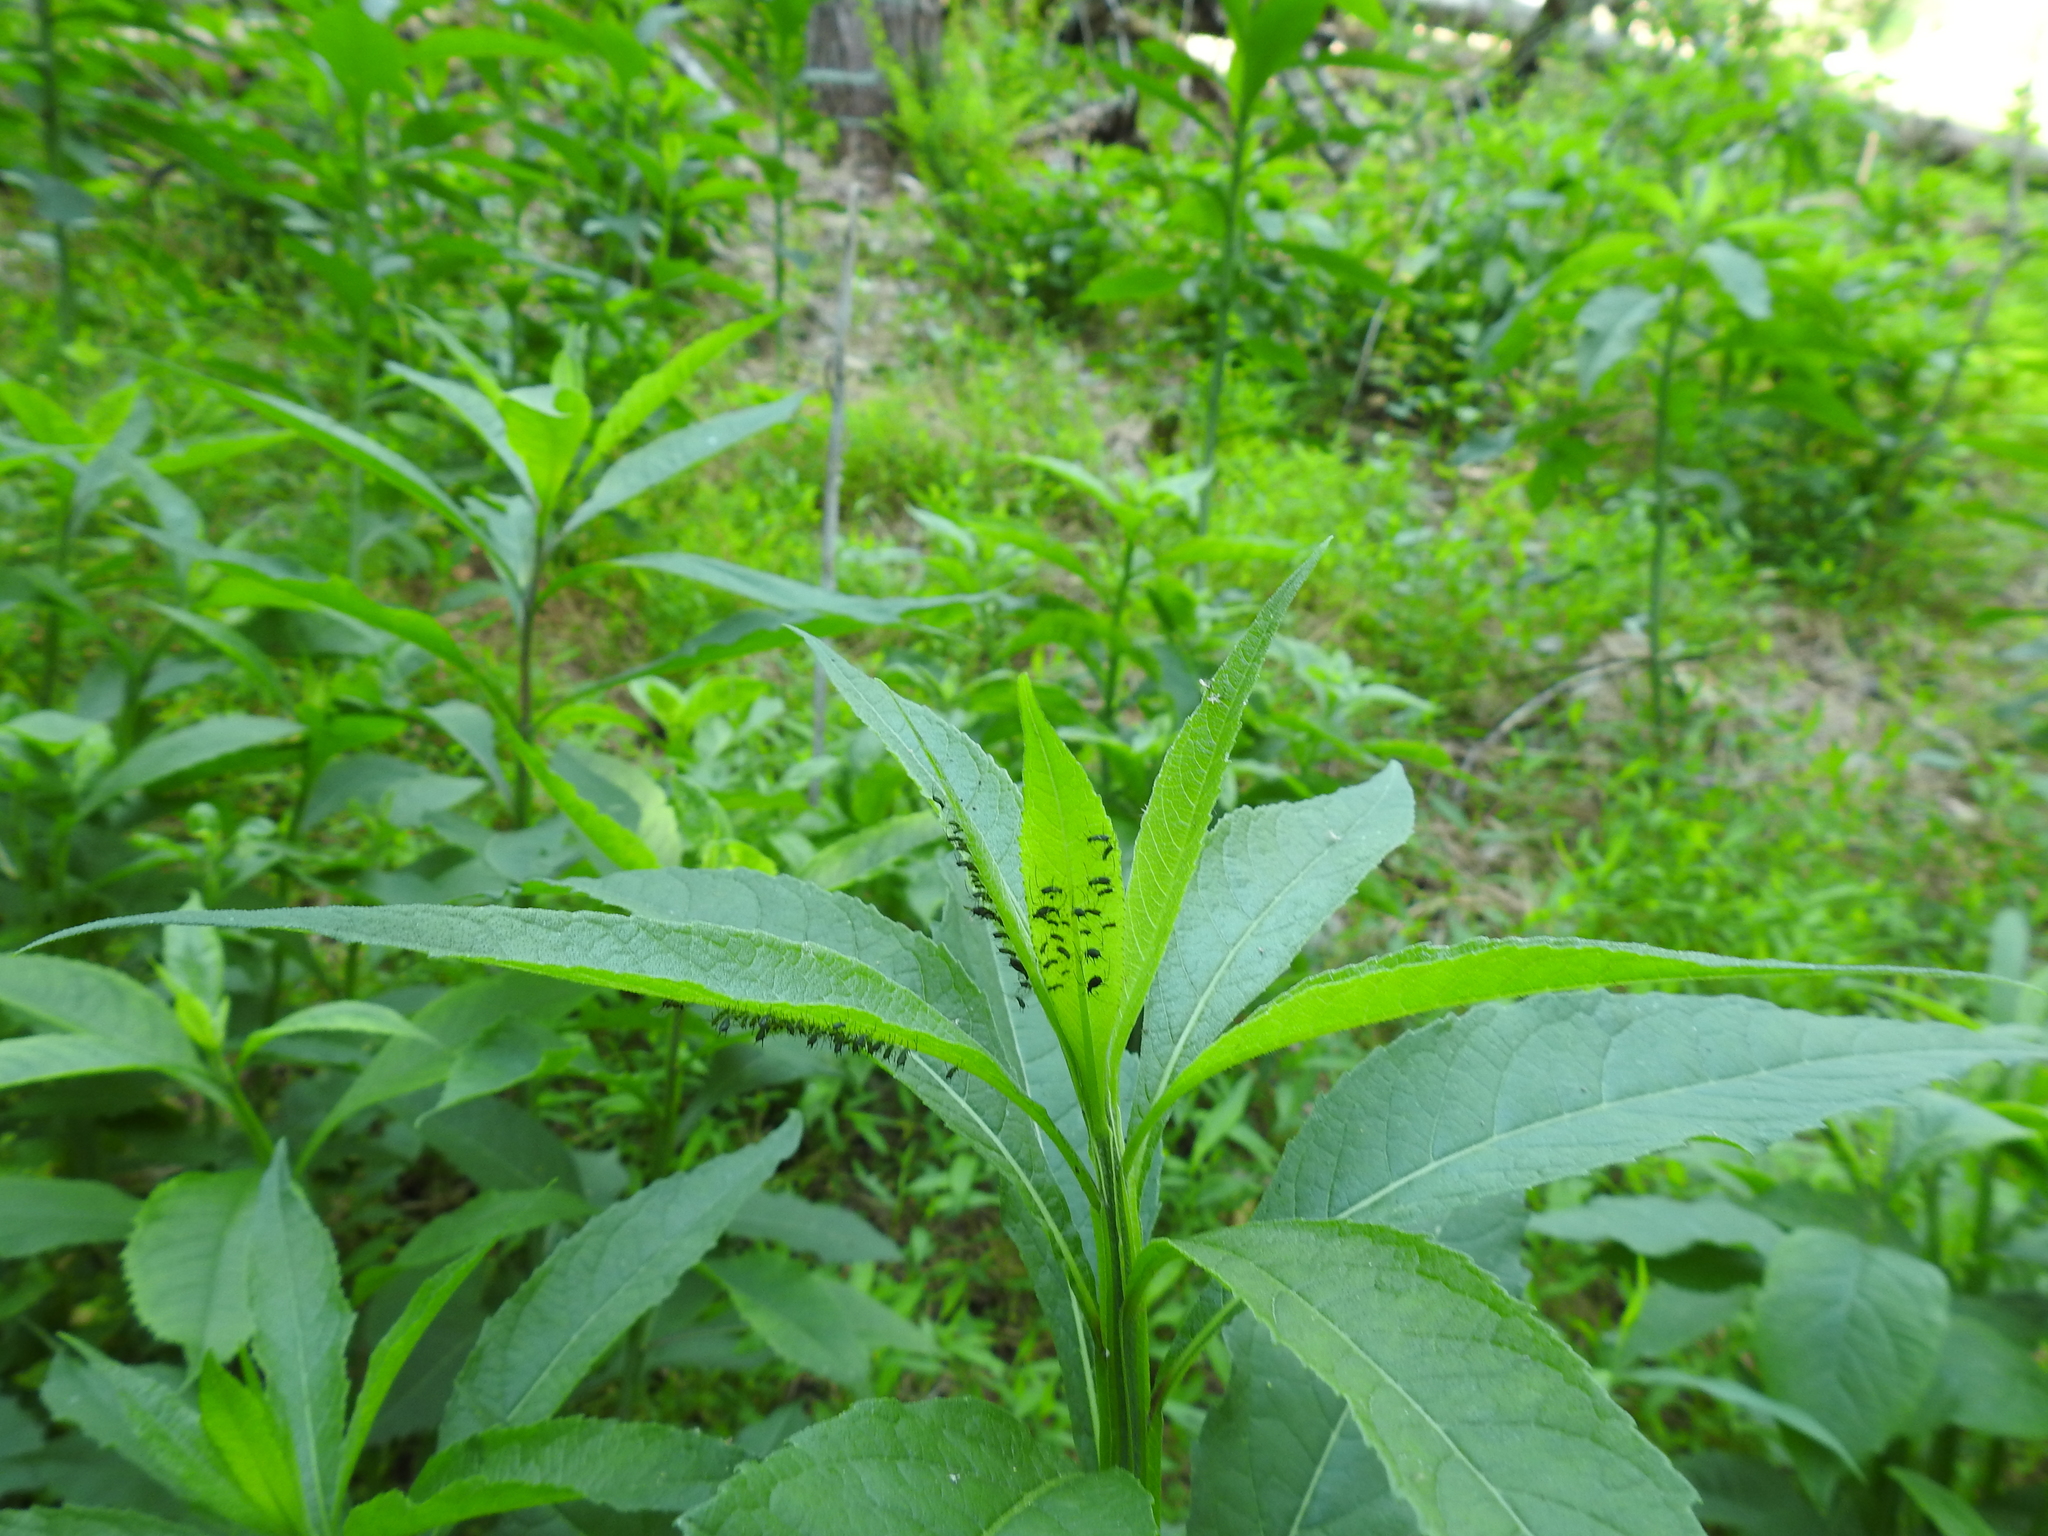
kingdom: Plantae
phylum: Tracheophyta
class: Magnoliopsida
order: Asterales
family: Asteraceae
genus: Verbesina
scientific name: Verbesina alternifolia
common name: Wingstem
